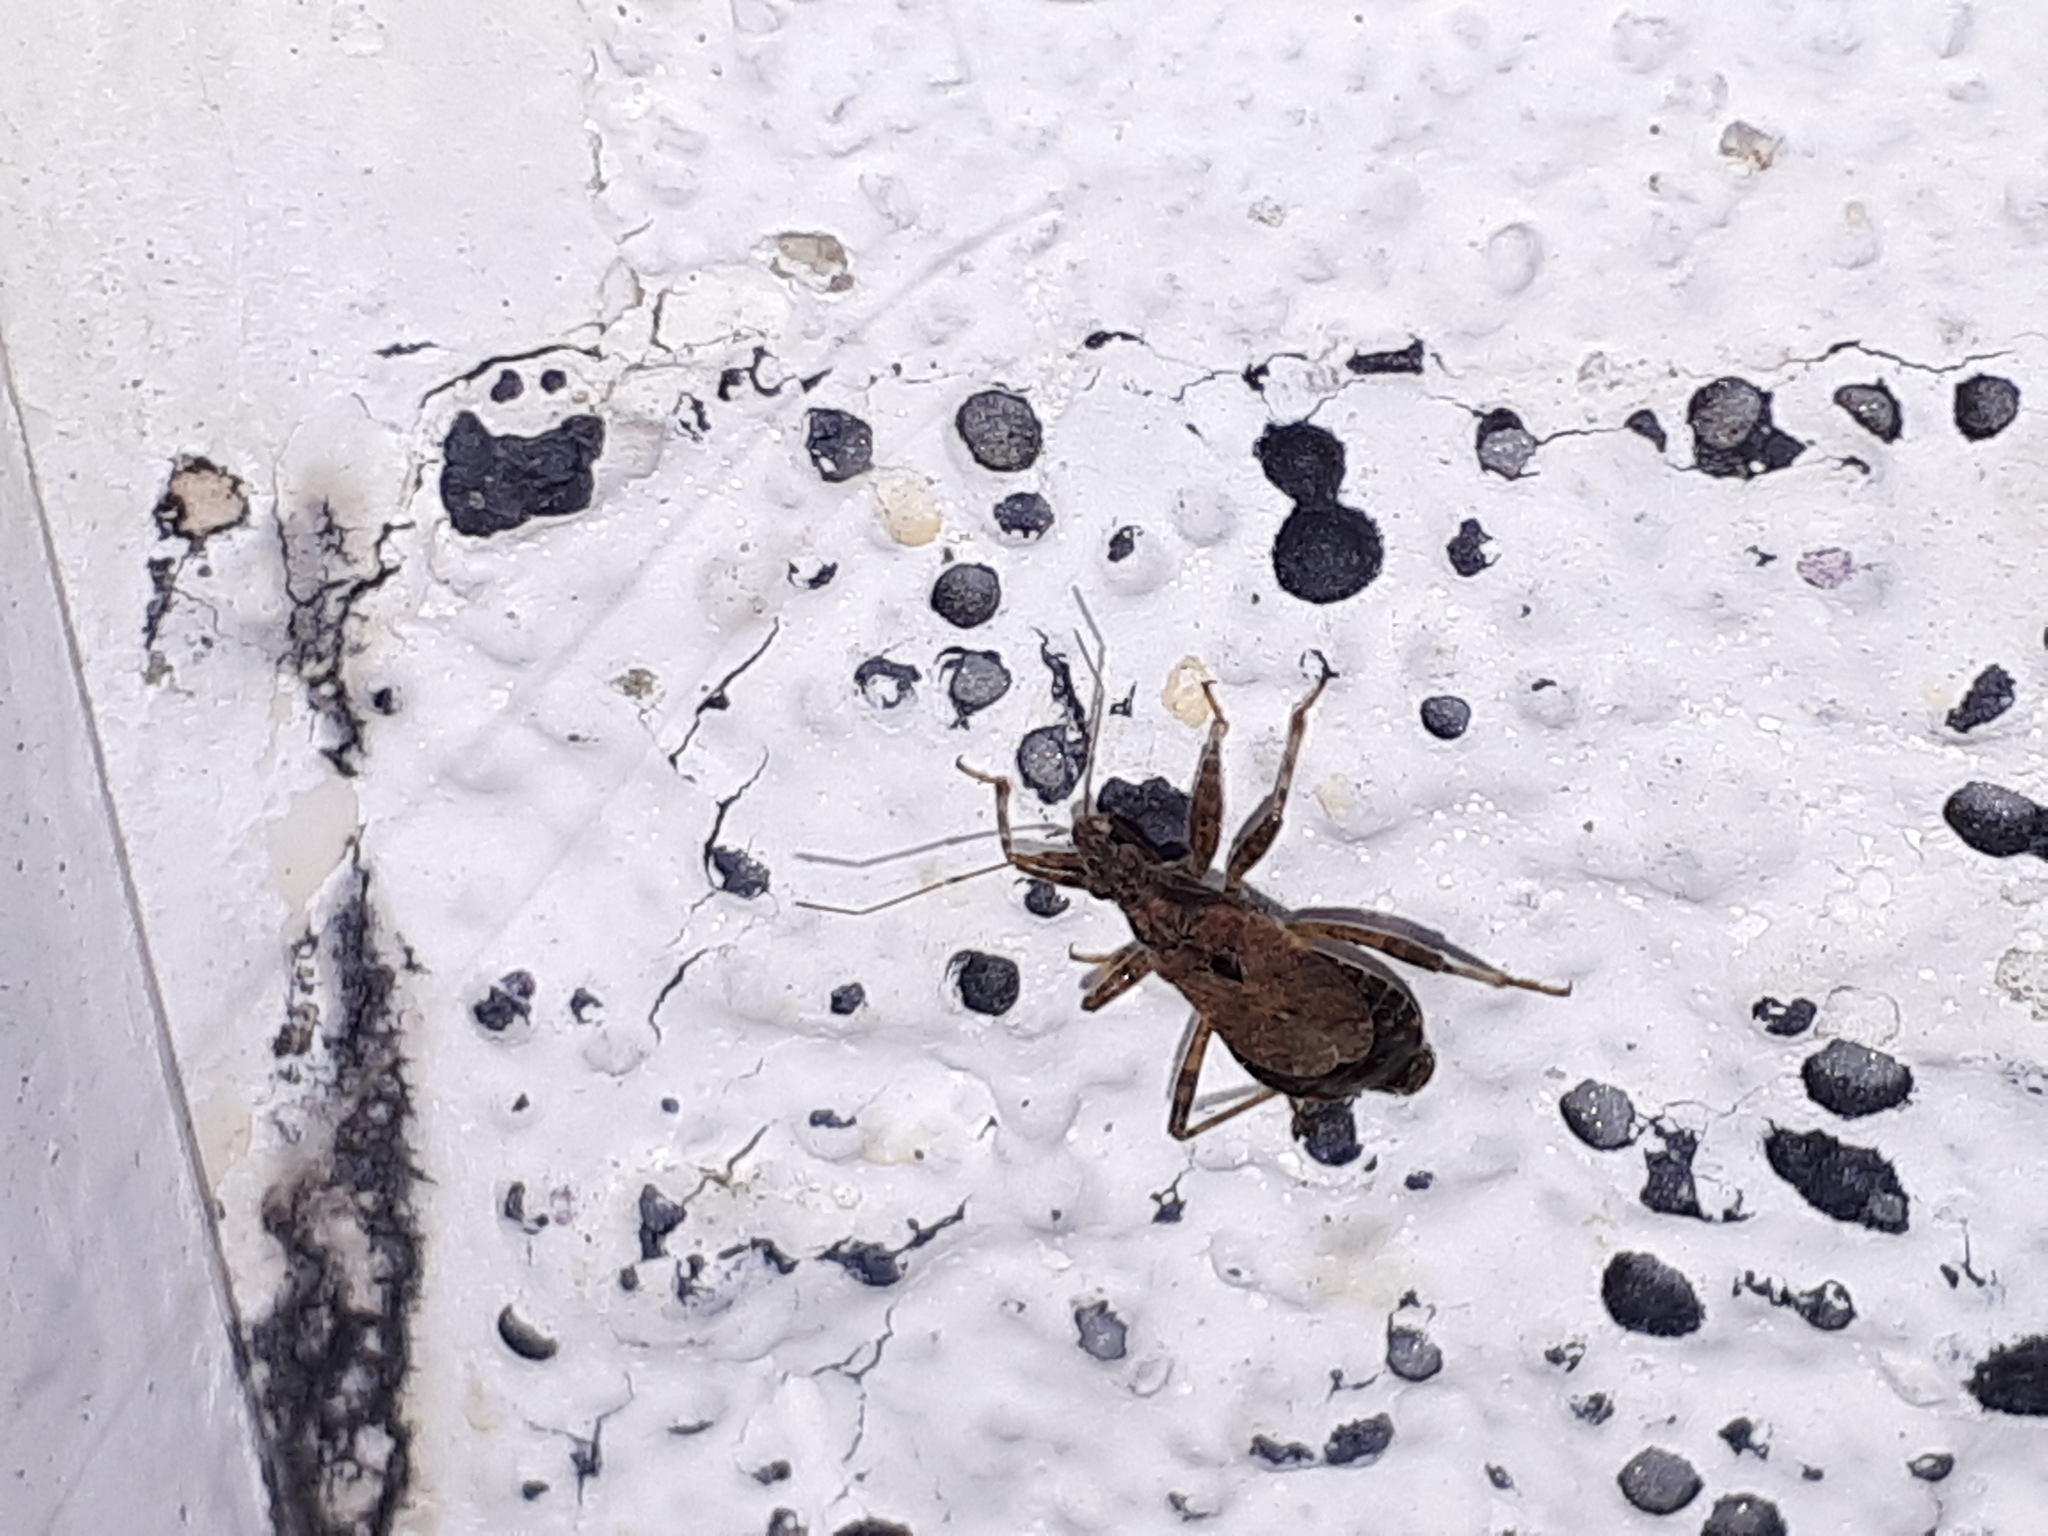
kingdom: Animalia
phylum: Arthropoda
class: Insecta
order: Hemiptera
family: Nabidae
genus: Himacerus
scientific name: Himacerus mirmicoides
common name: Ant damsel bug
